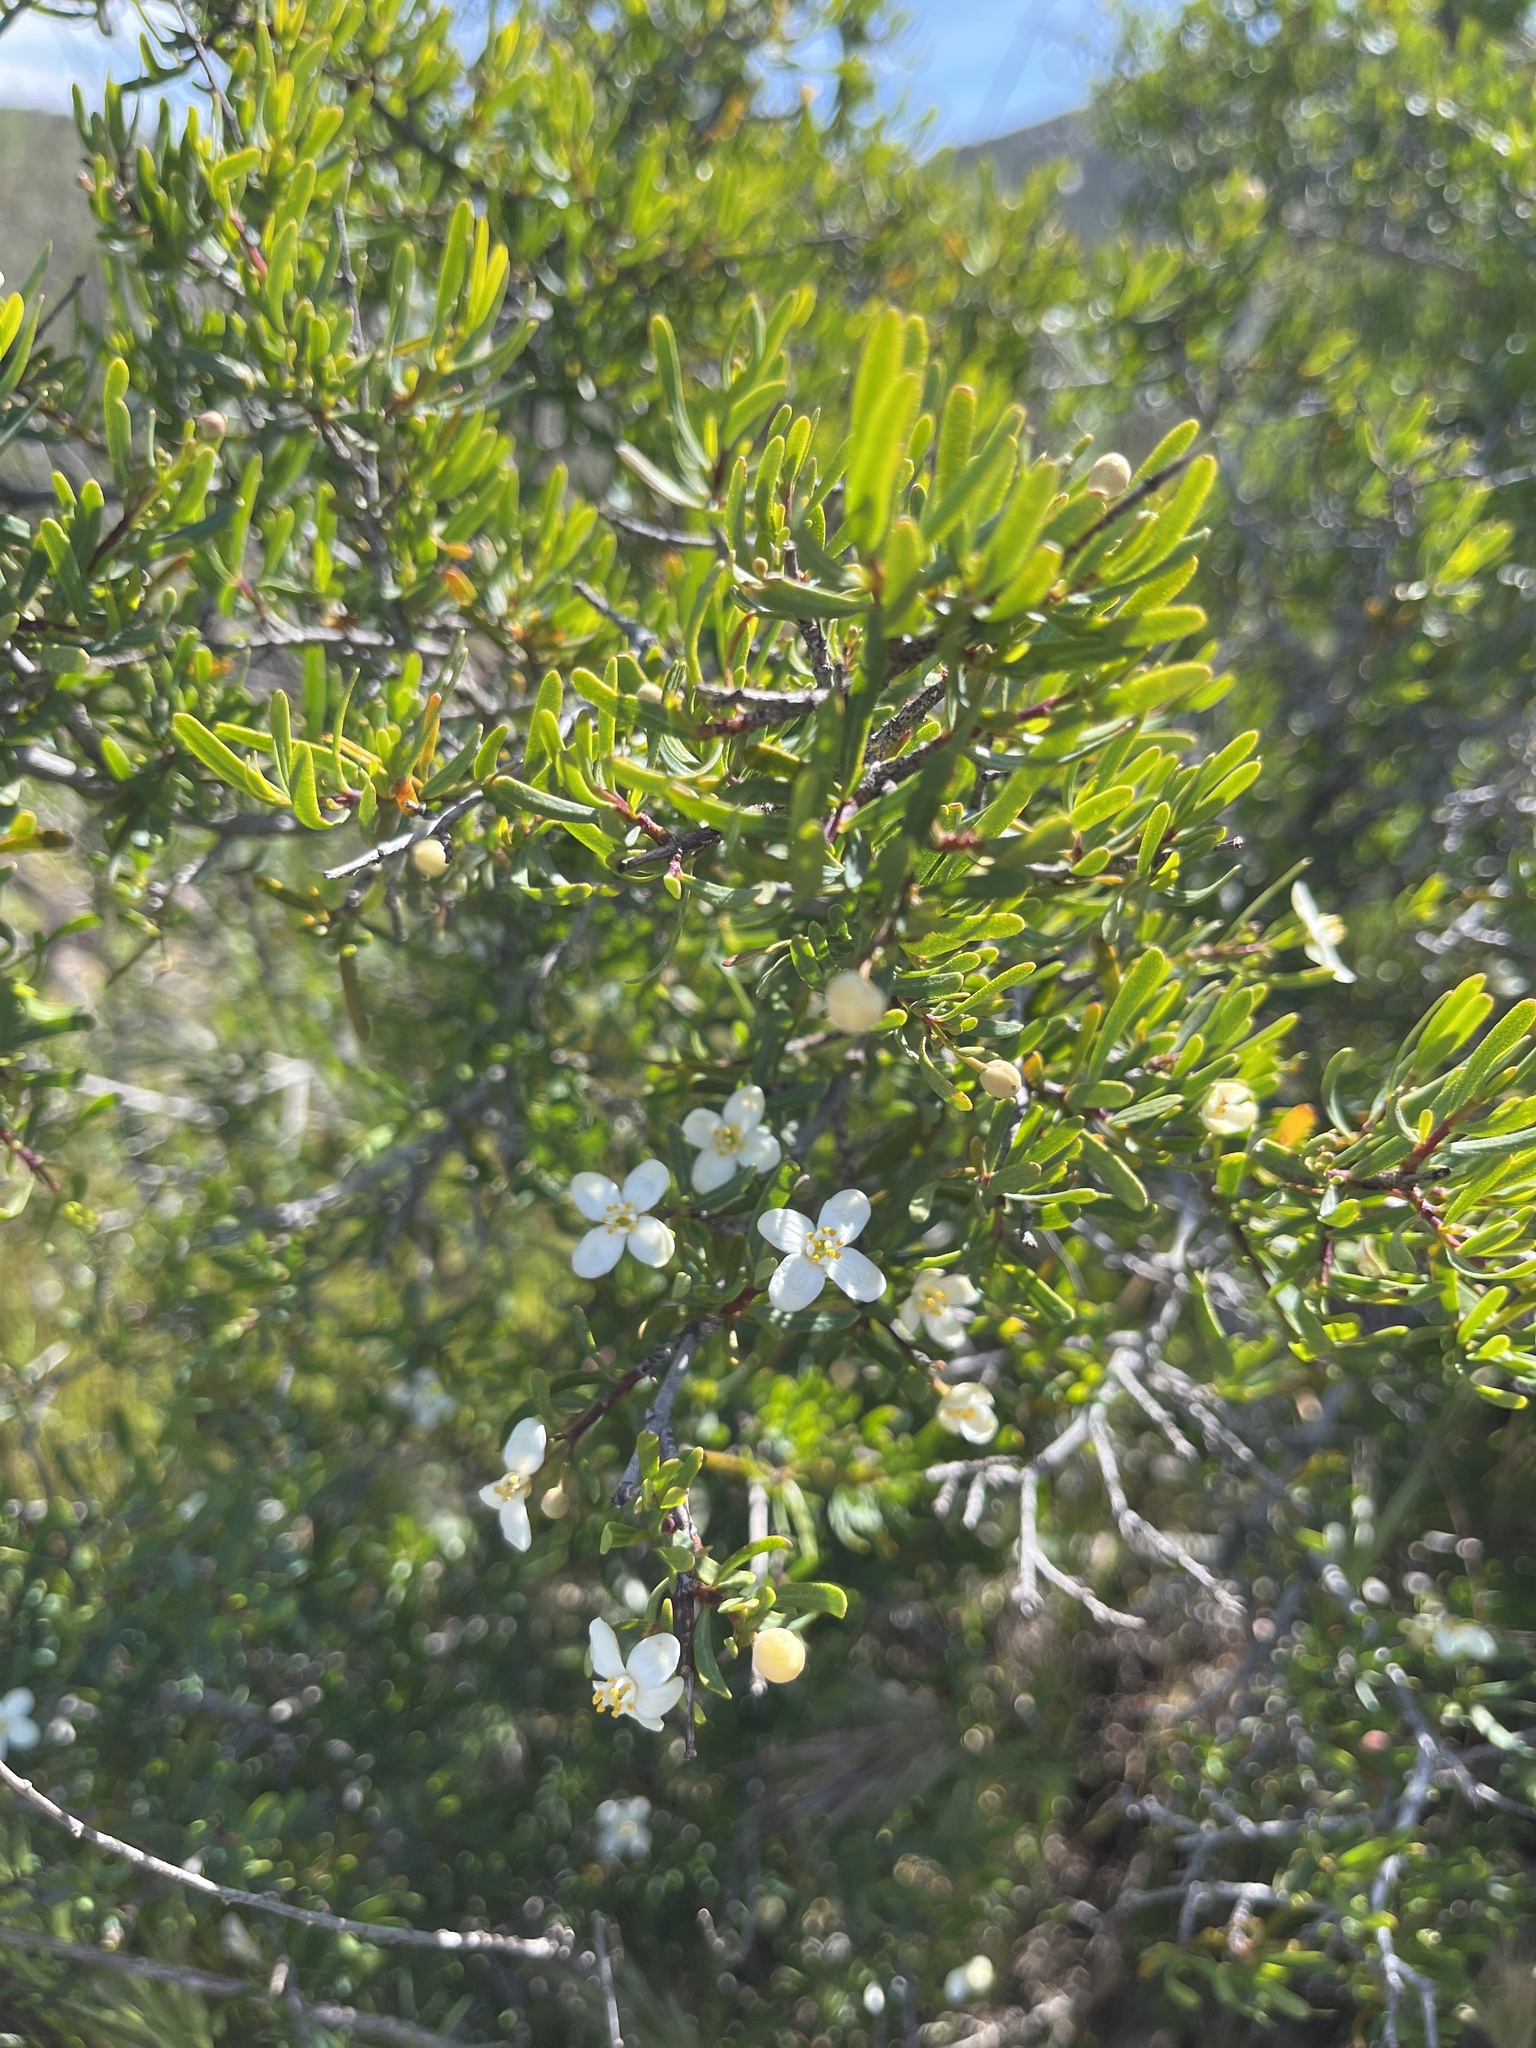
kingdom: Plantae
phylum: Tracheophyta
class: Magnoliopsida
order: Sapindales
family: Rutaceae
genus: Cneoridium
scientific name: Cneoridium dumosum
